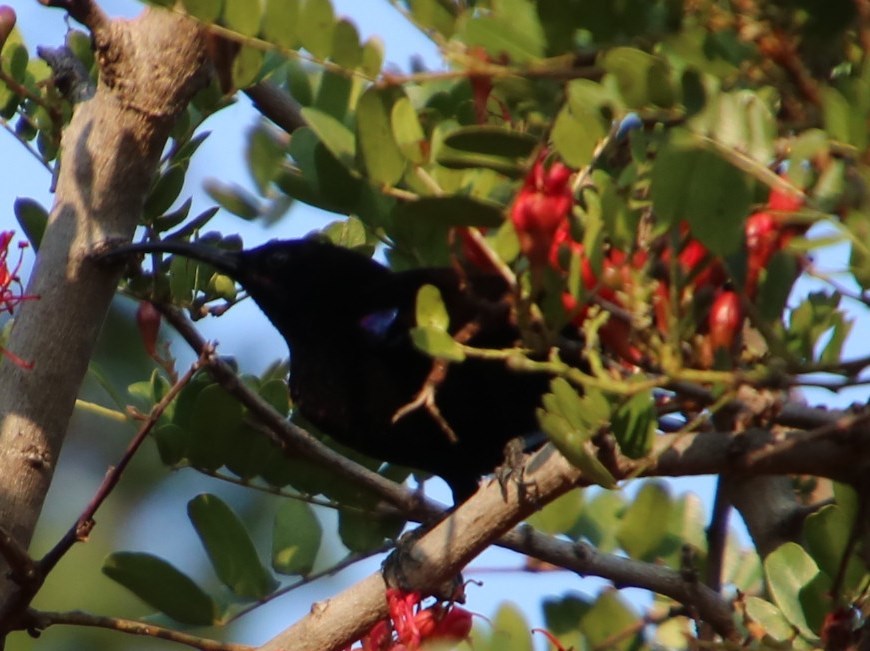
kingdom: Animalia
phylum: Chordata
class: Aves
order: Passeriformes
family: Nectariniidae
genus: Chalcomitra
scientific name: Chalcomitra amethystina
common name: Amethyst sunbird
